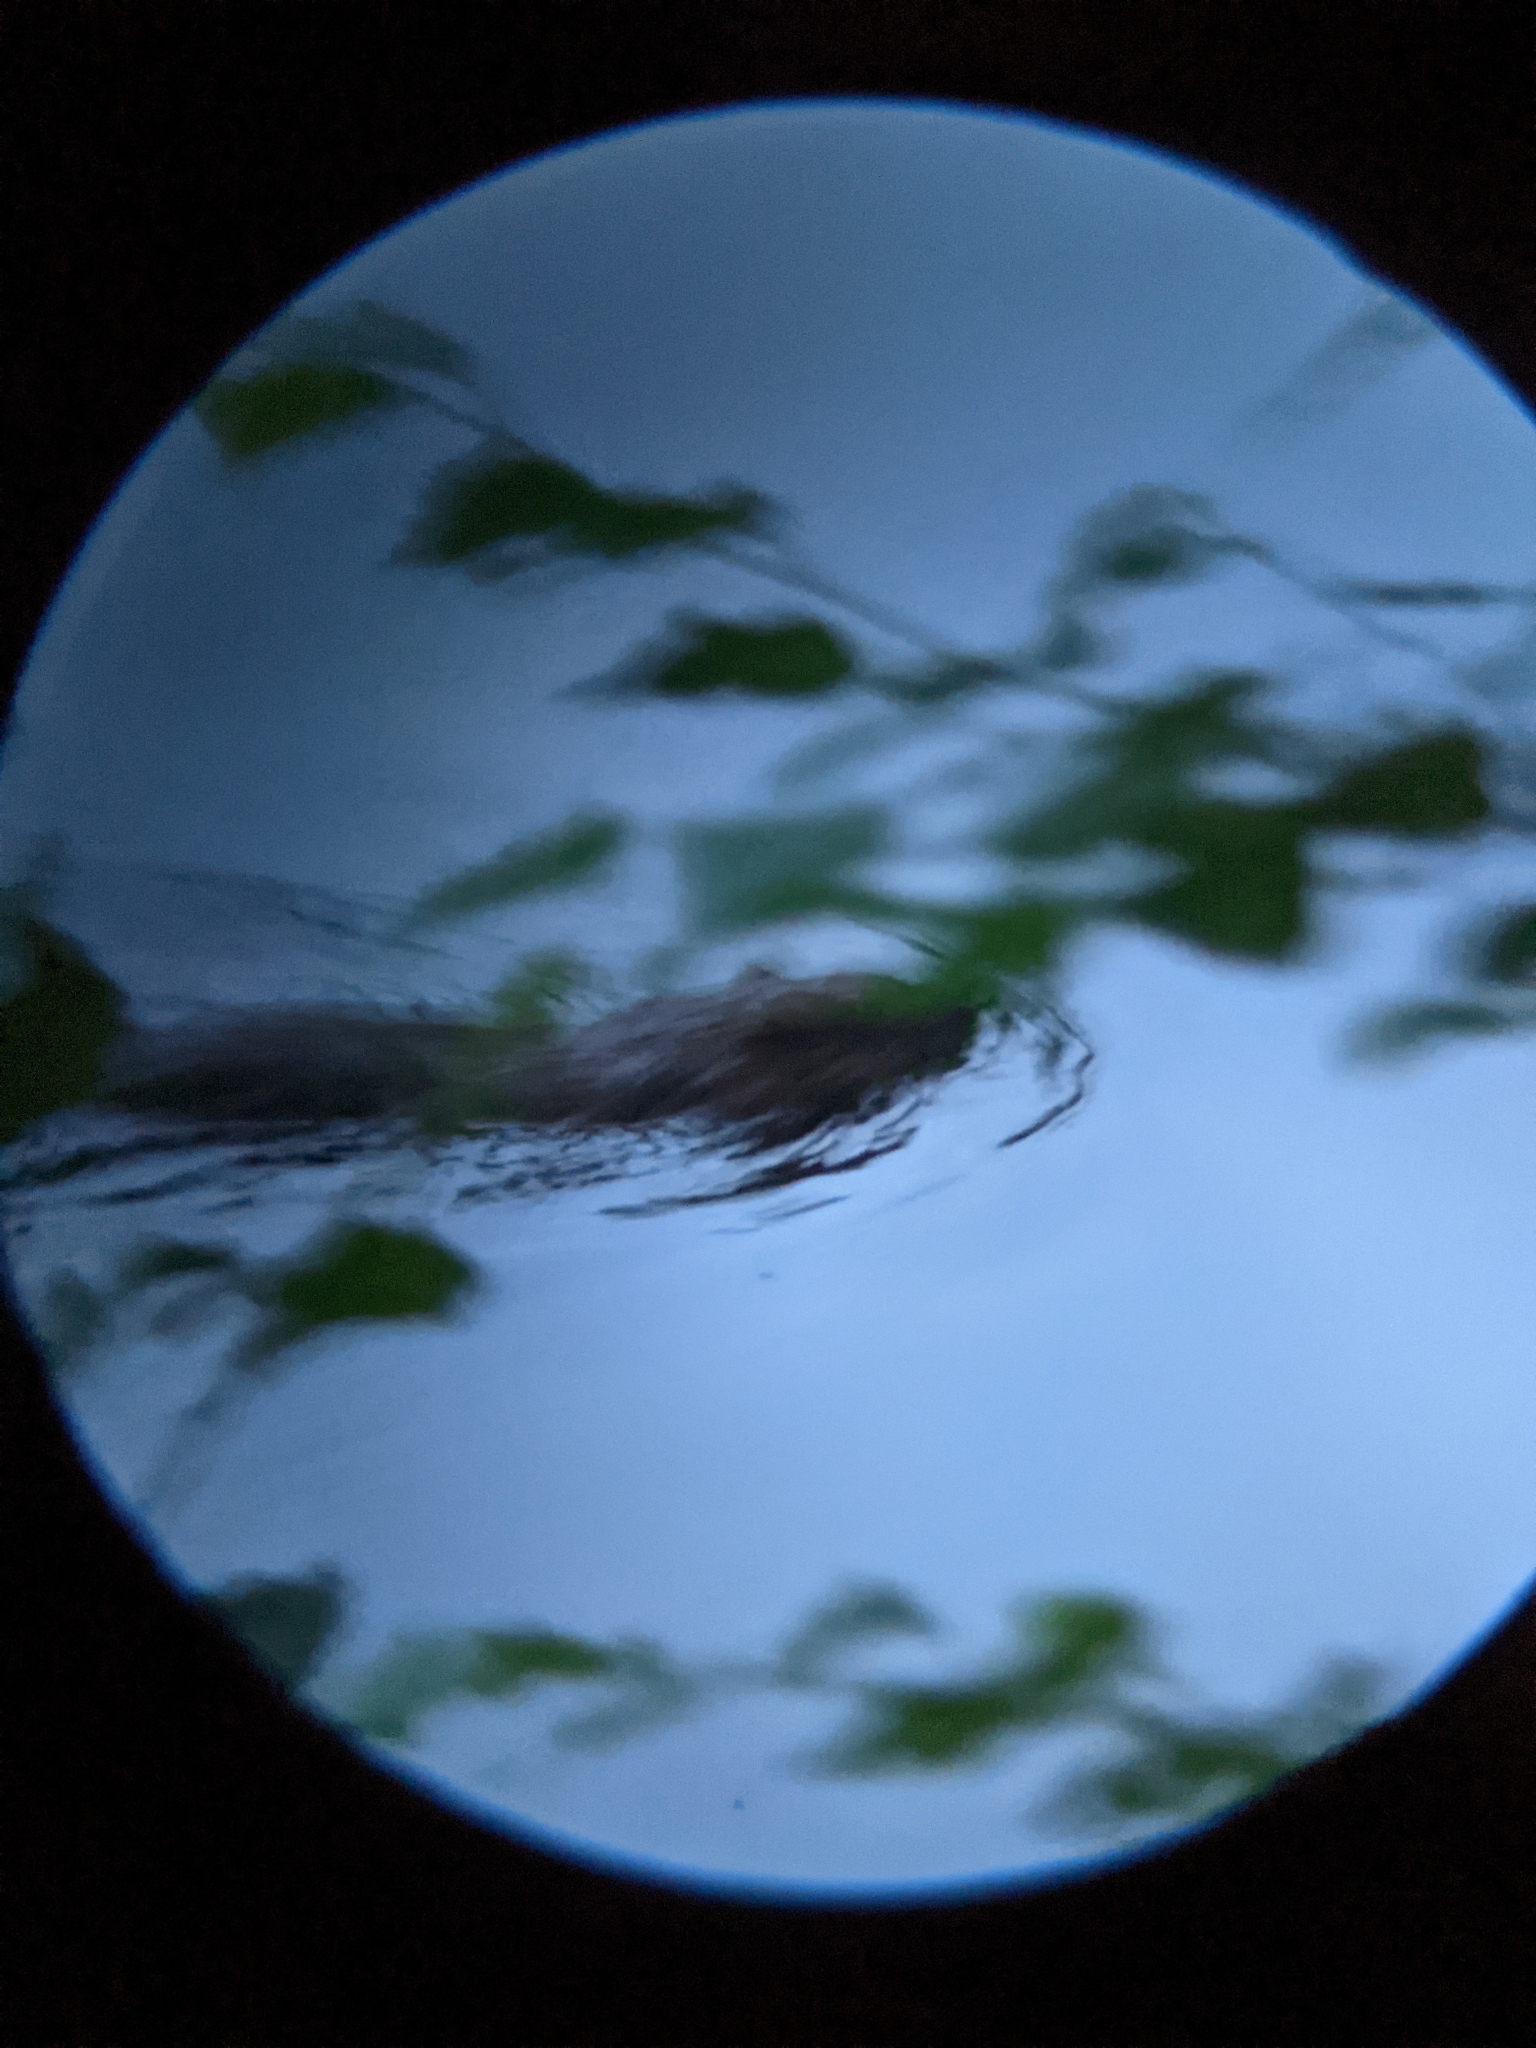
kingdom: Animalia
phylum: Chordata
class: Mammalia
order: Rodentia
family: Cricetidae
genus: Ondatra
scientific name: Ondatra zibethicus
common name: Muskrat
